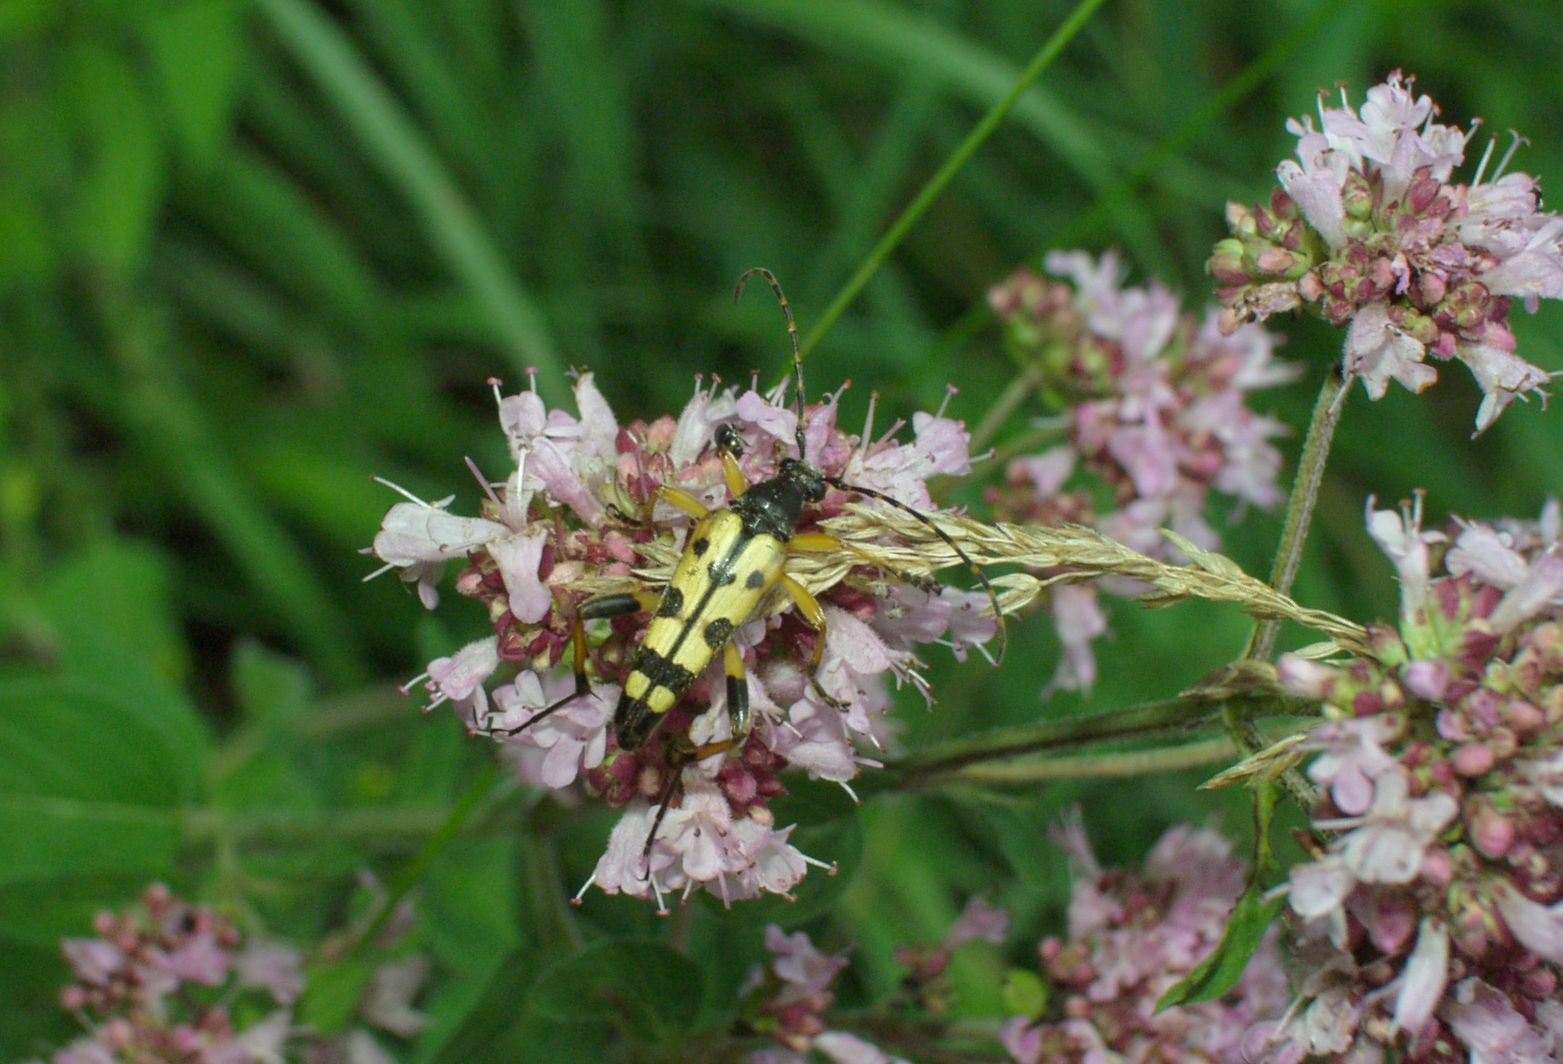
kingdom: Animalia
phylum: Arthropoda
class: Insecta
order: Coleoptera
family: Cerambycidae
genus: Rutpela
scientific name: Rutpela maculata
